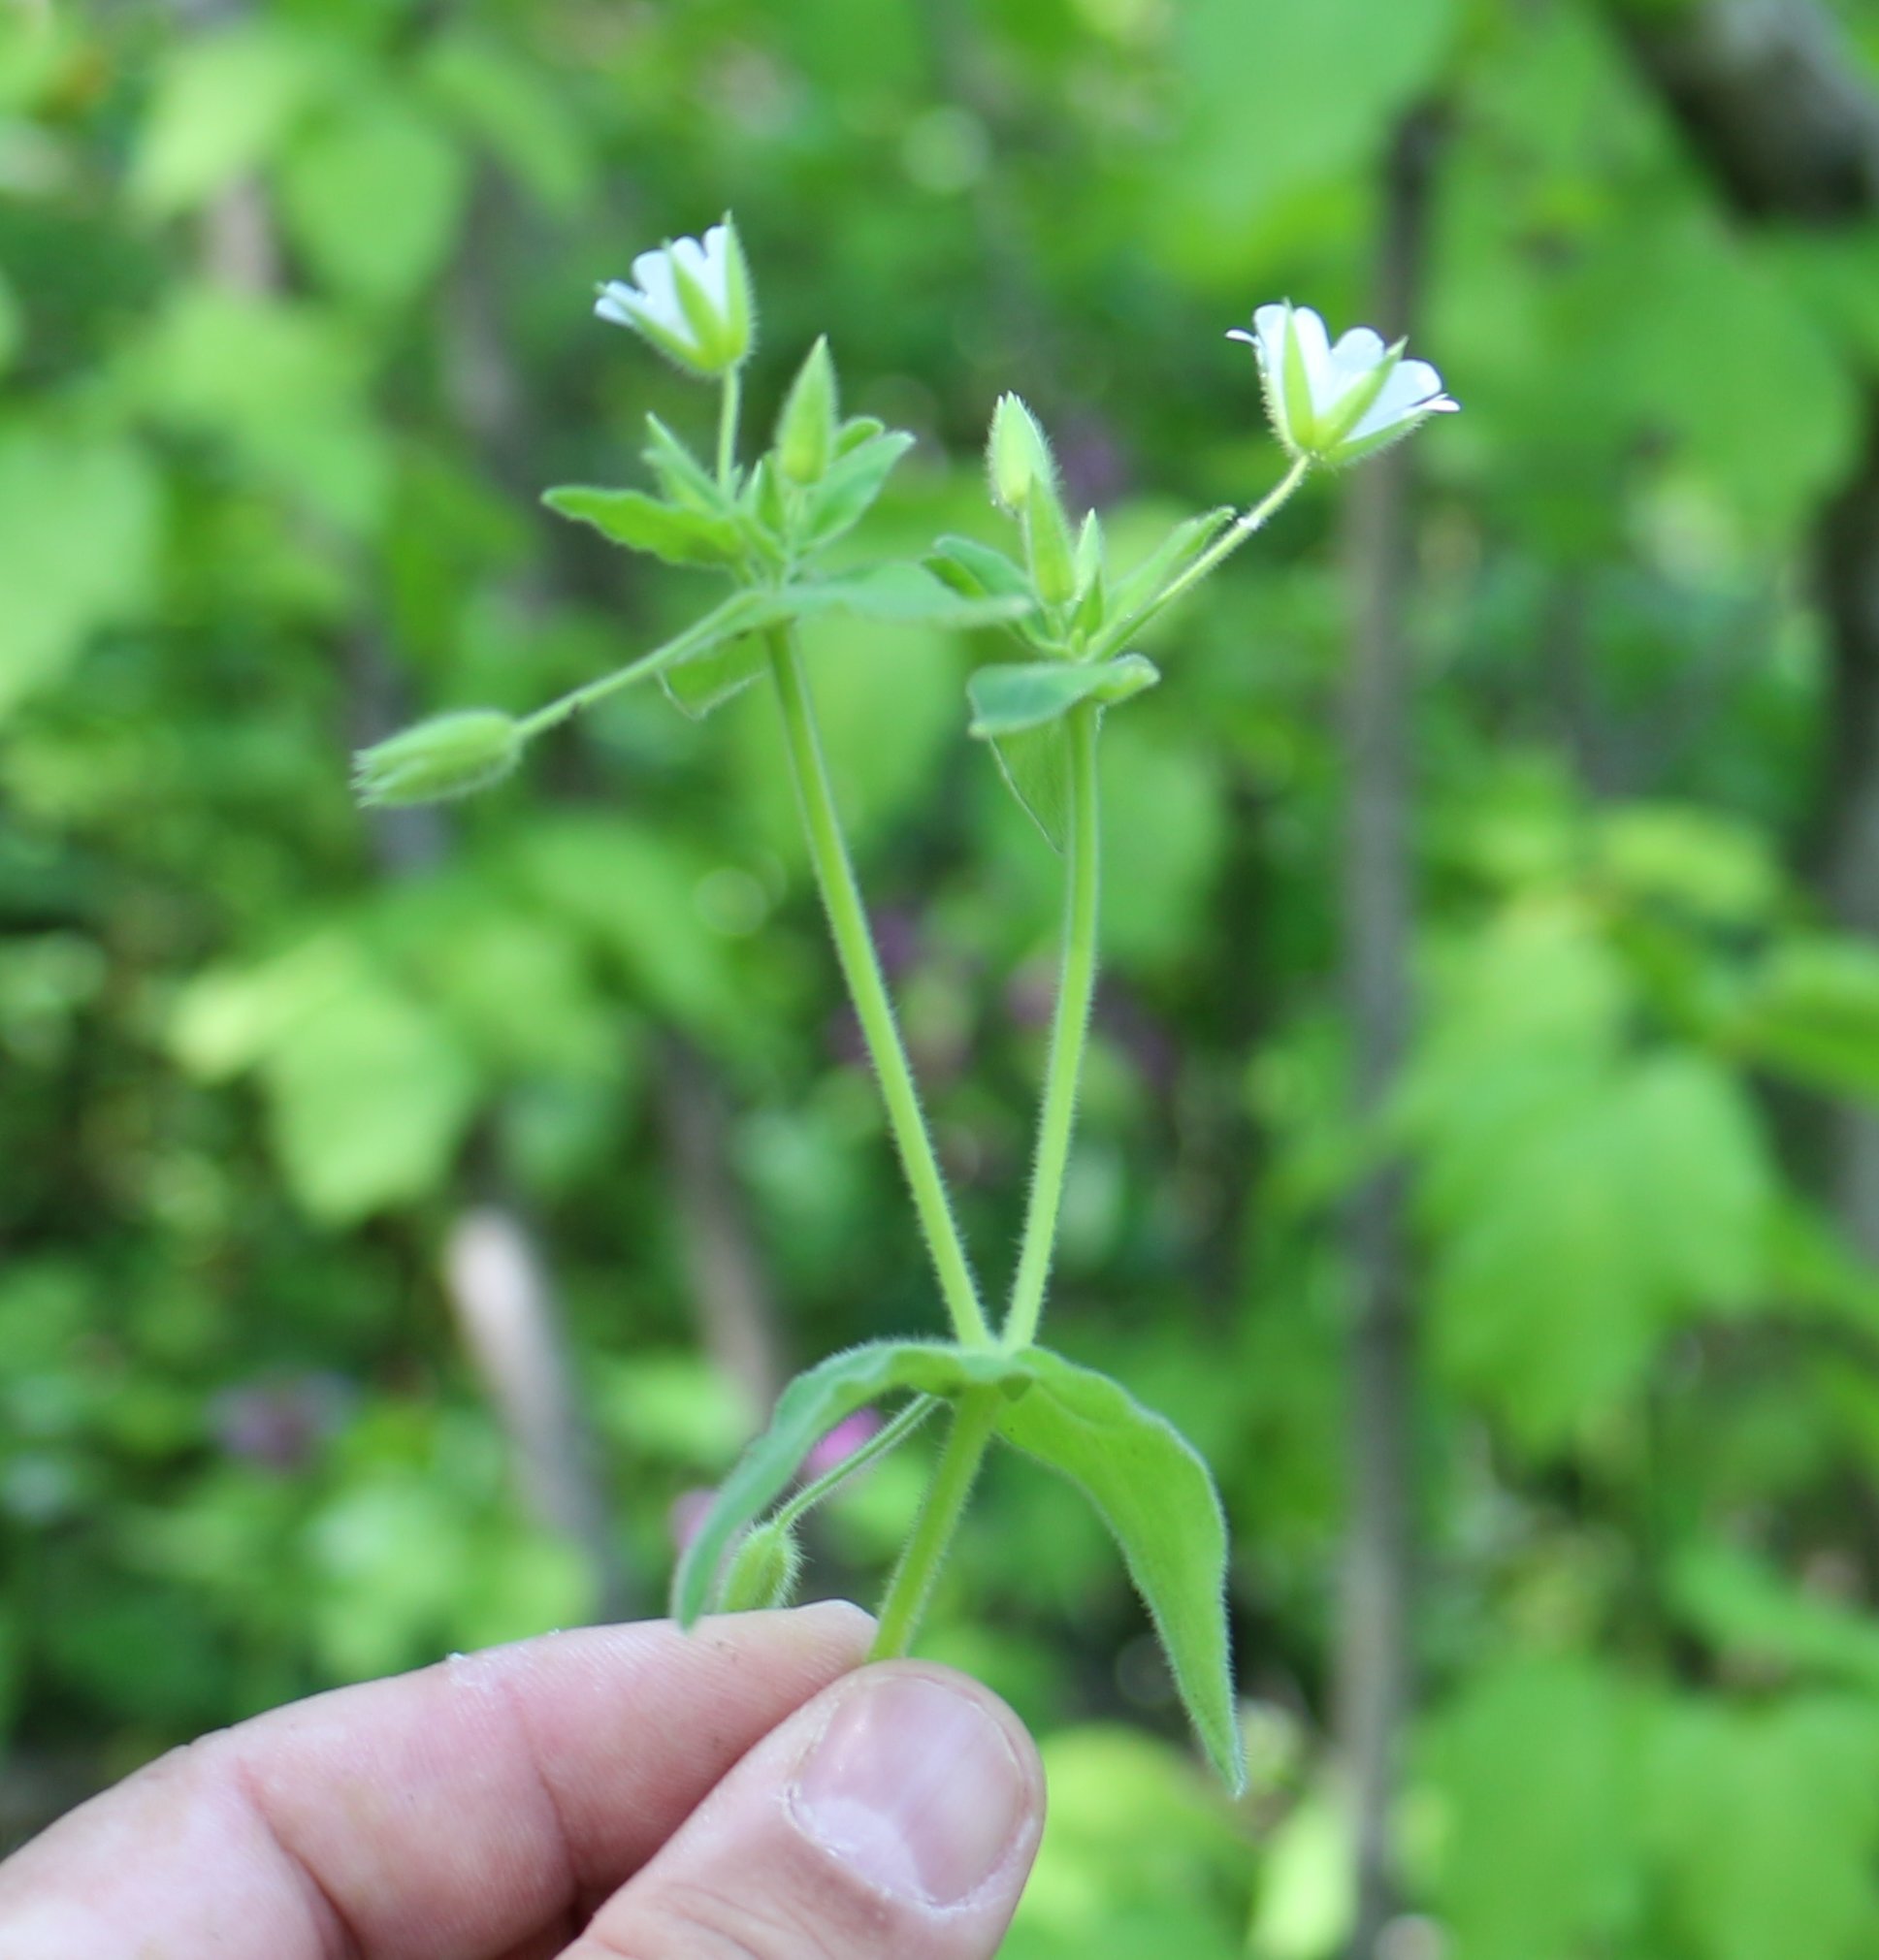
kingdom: Plantae
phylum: Tracheophyta
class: Magnoliopsida
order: Caryophyllales
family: Caryophyllaceae
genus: Cerastium
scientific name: Cerastium nemorale
